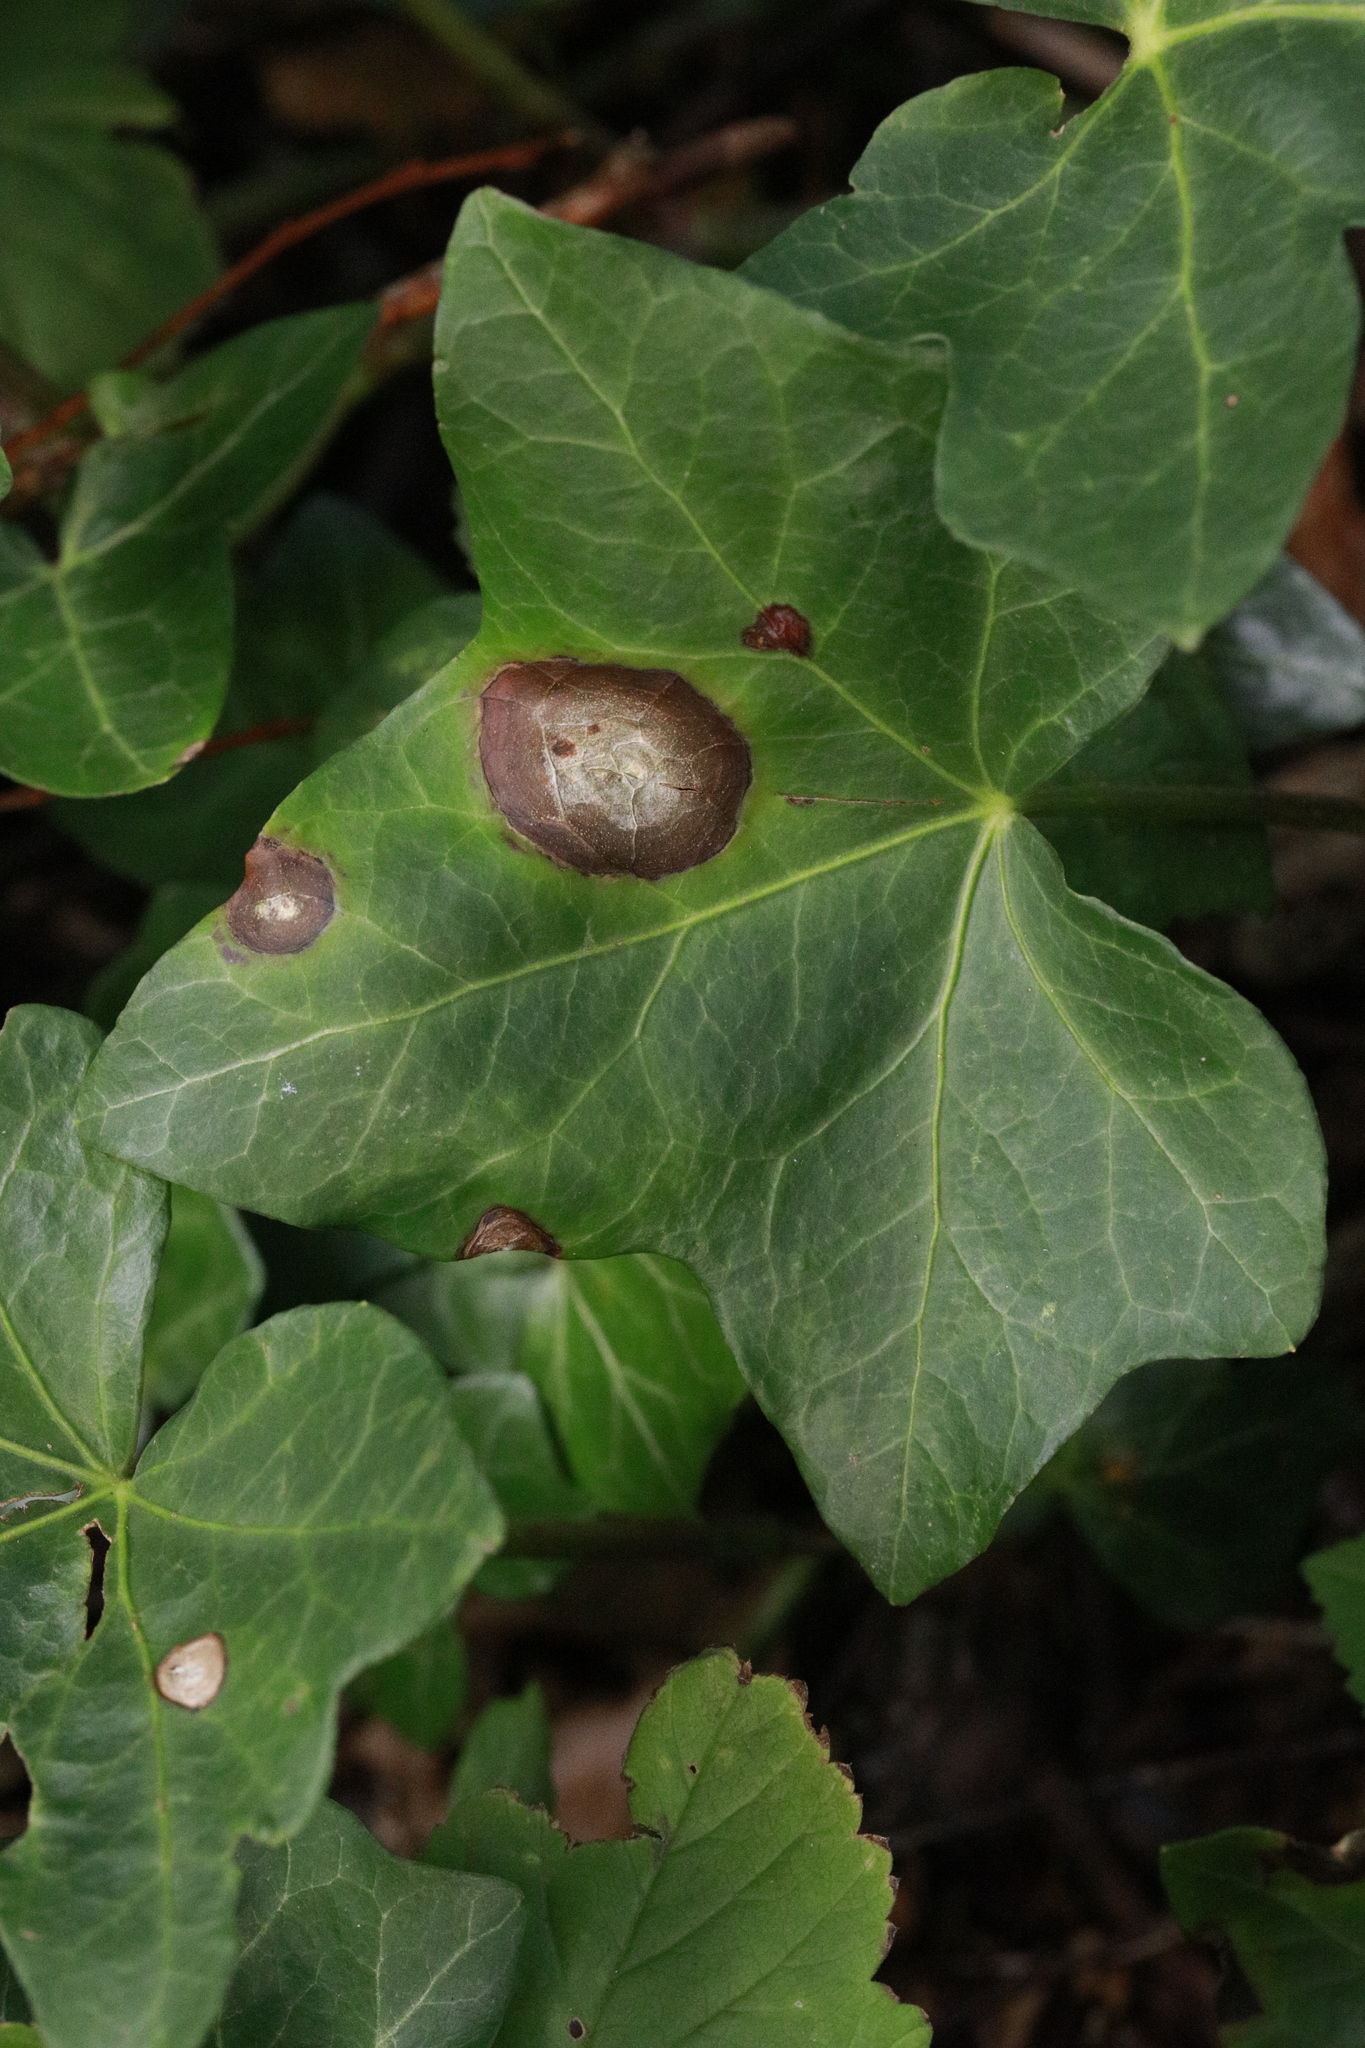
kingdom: Fungi
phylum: Ascomycota
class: Dothideomycetes
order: Pleosporales
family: Didymellaceae
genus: Boeremia
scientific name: Boeremia hedericola
